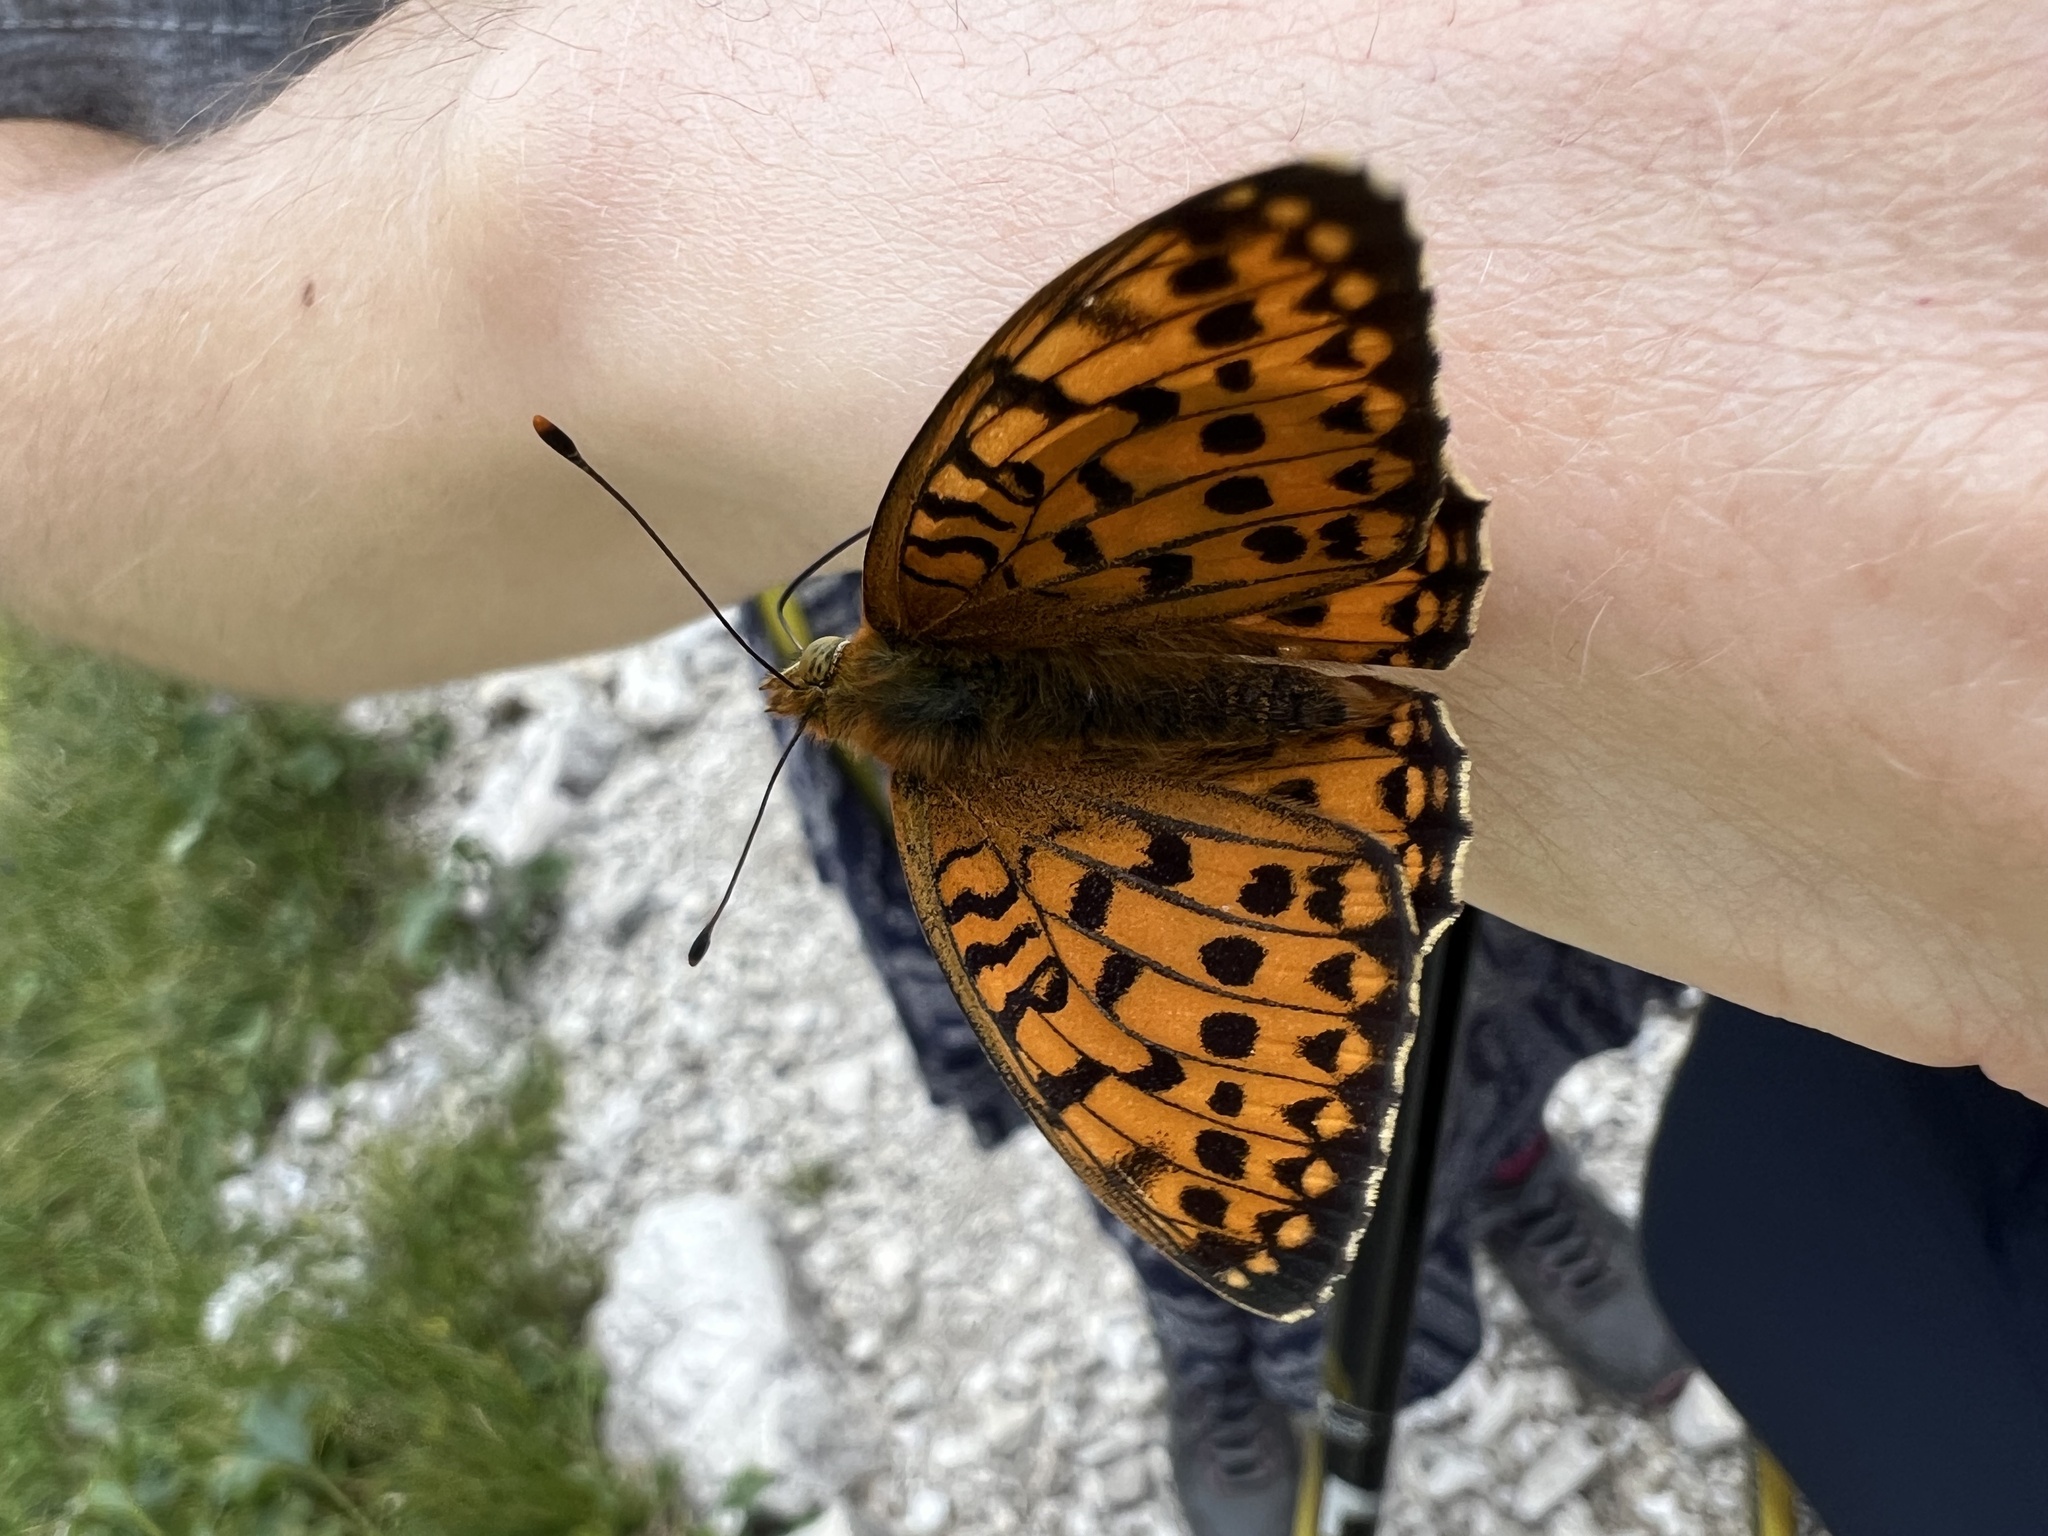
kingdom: Animalia
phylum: Arthropoda
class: Insecta
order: Lepidoptera
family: Nymphalidae
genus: Speyeria
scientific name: Speyeria aglaja
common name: Dark green fritillary
